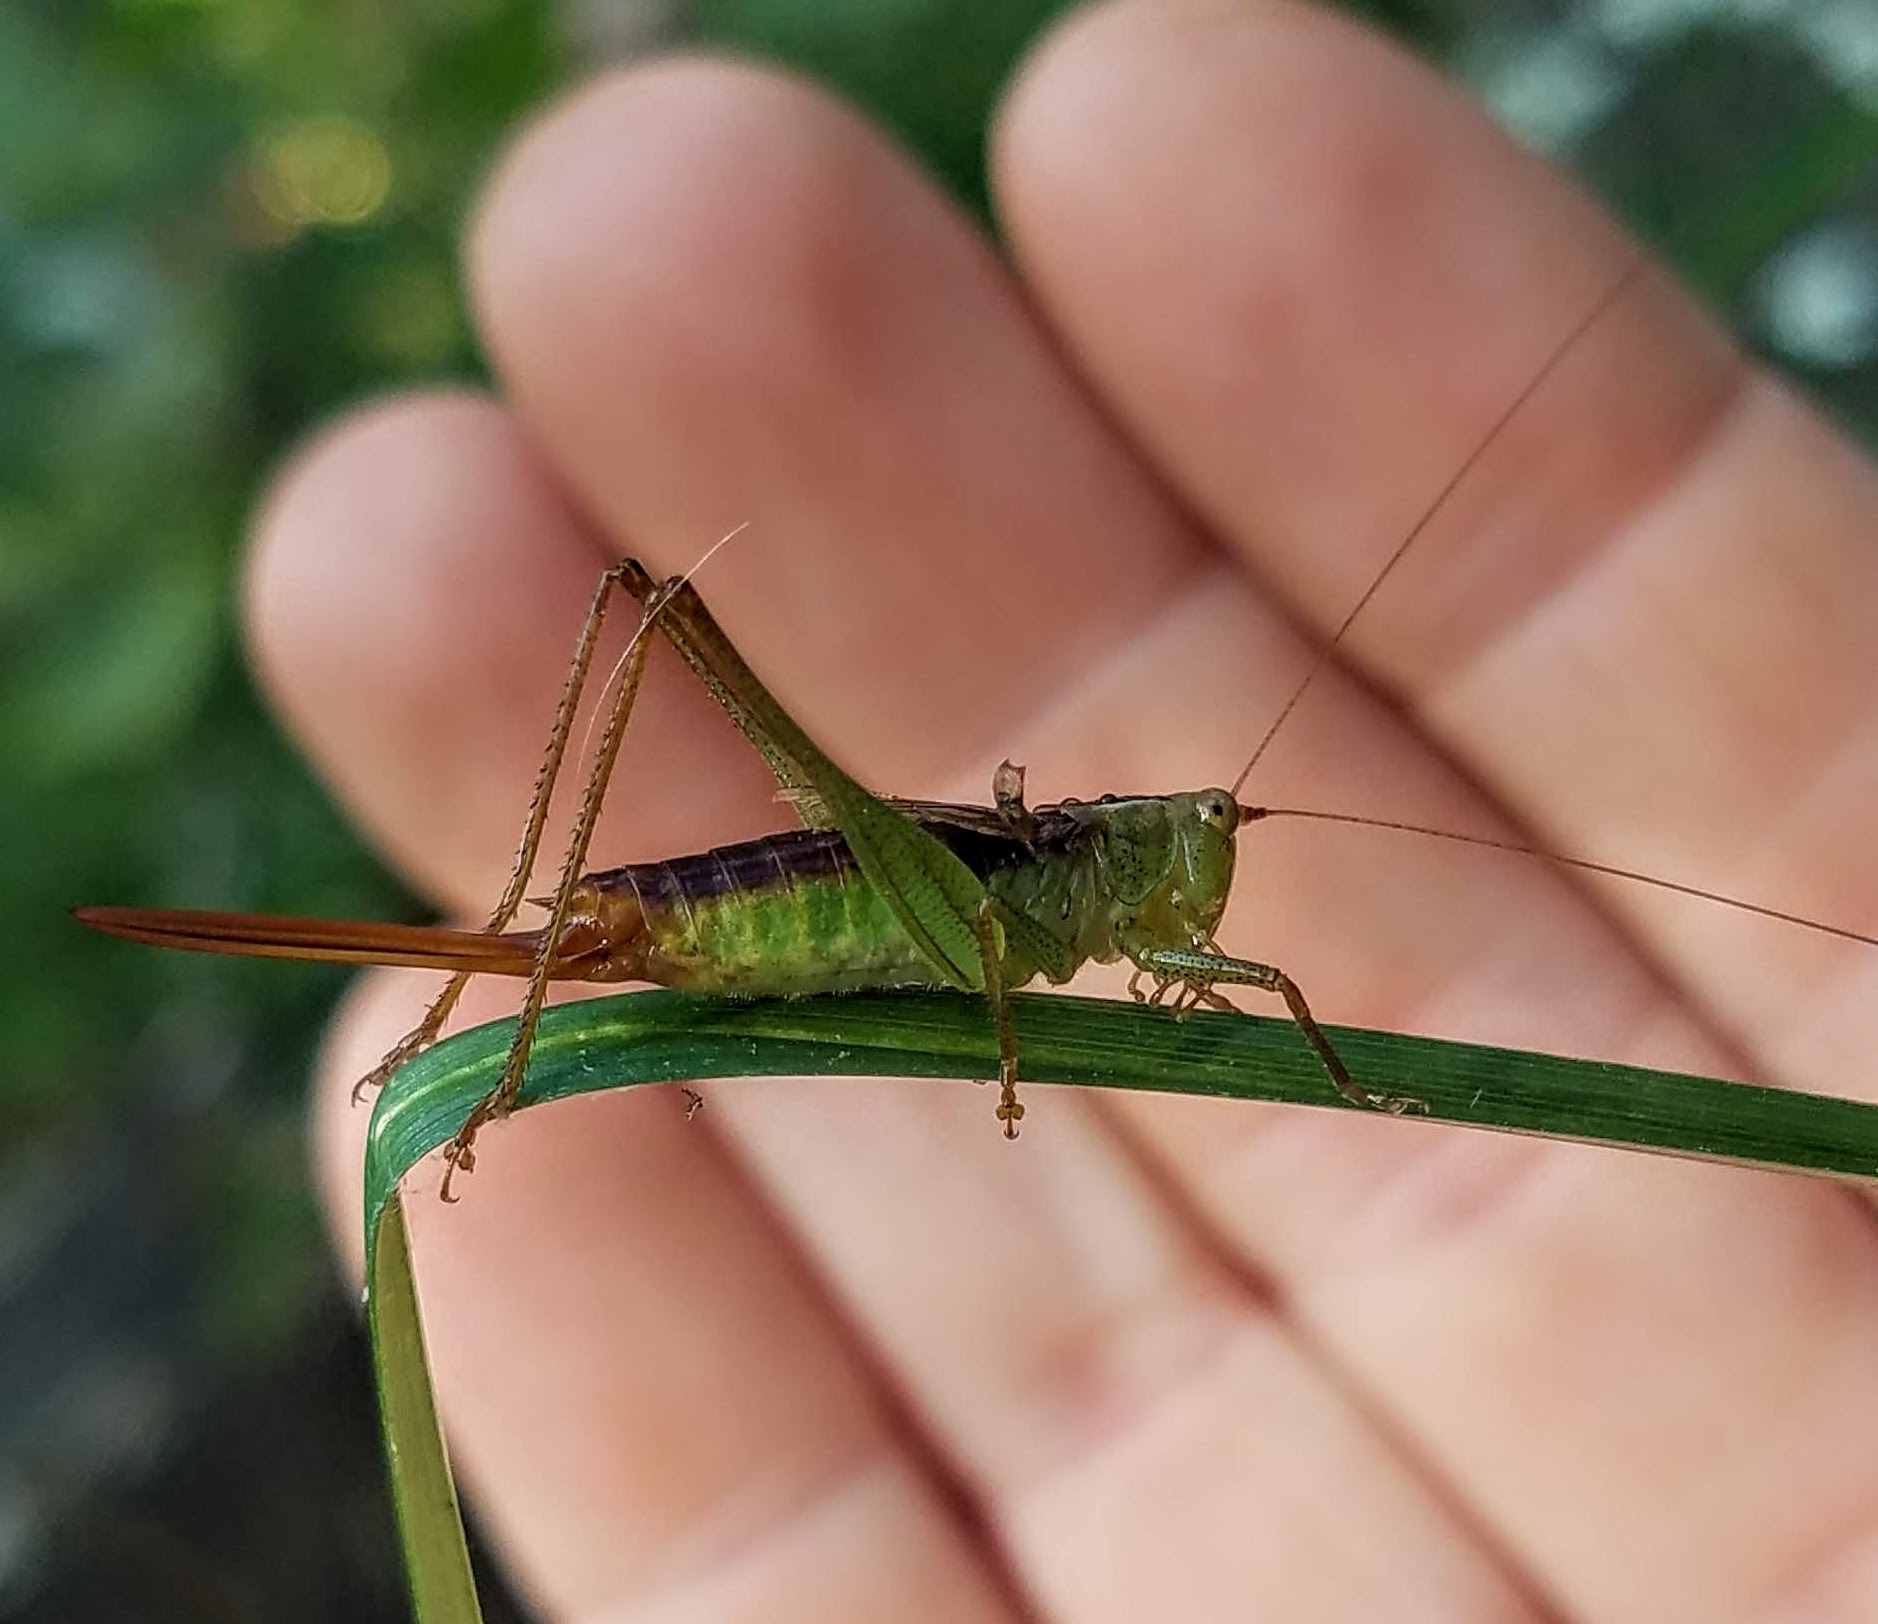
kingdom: Animalia
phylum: Arthropoda
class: Insecta
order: Orthoptera
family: Tettigoniidae
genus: Conocephalus
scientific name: Conocephalus brevipennis
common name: Short-winged meadow katydid
